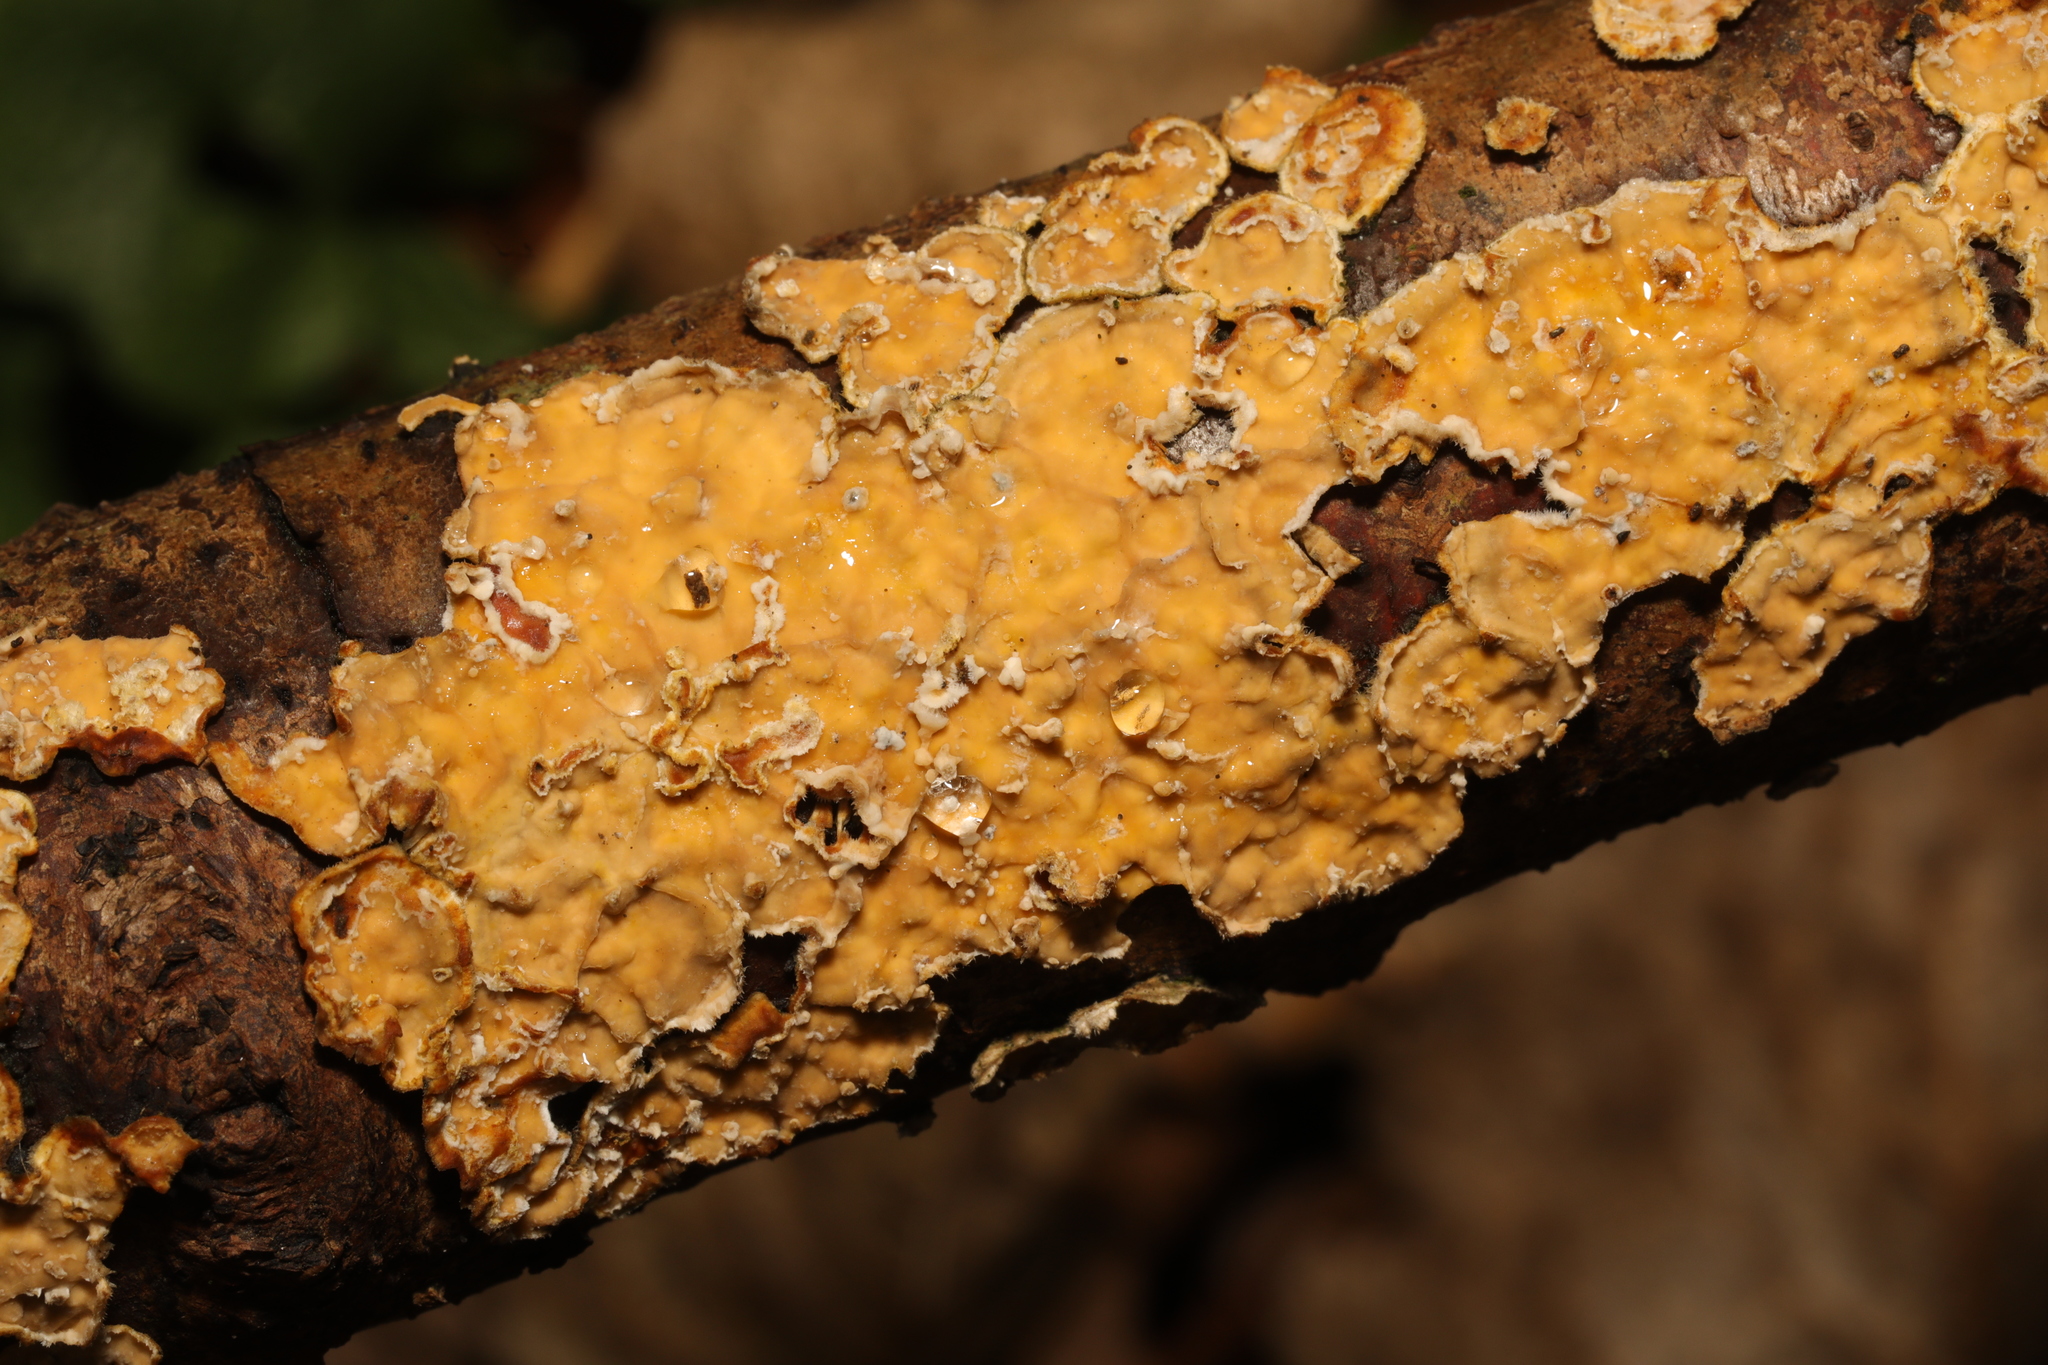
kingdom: Fungi
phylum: Basidiomycota
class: Agaricomycetes
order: Russulales
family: Stereaceae
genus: Stereum
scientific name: Stereum hirsutum
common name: Hairy curtain crust
